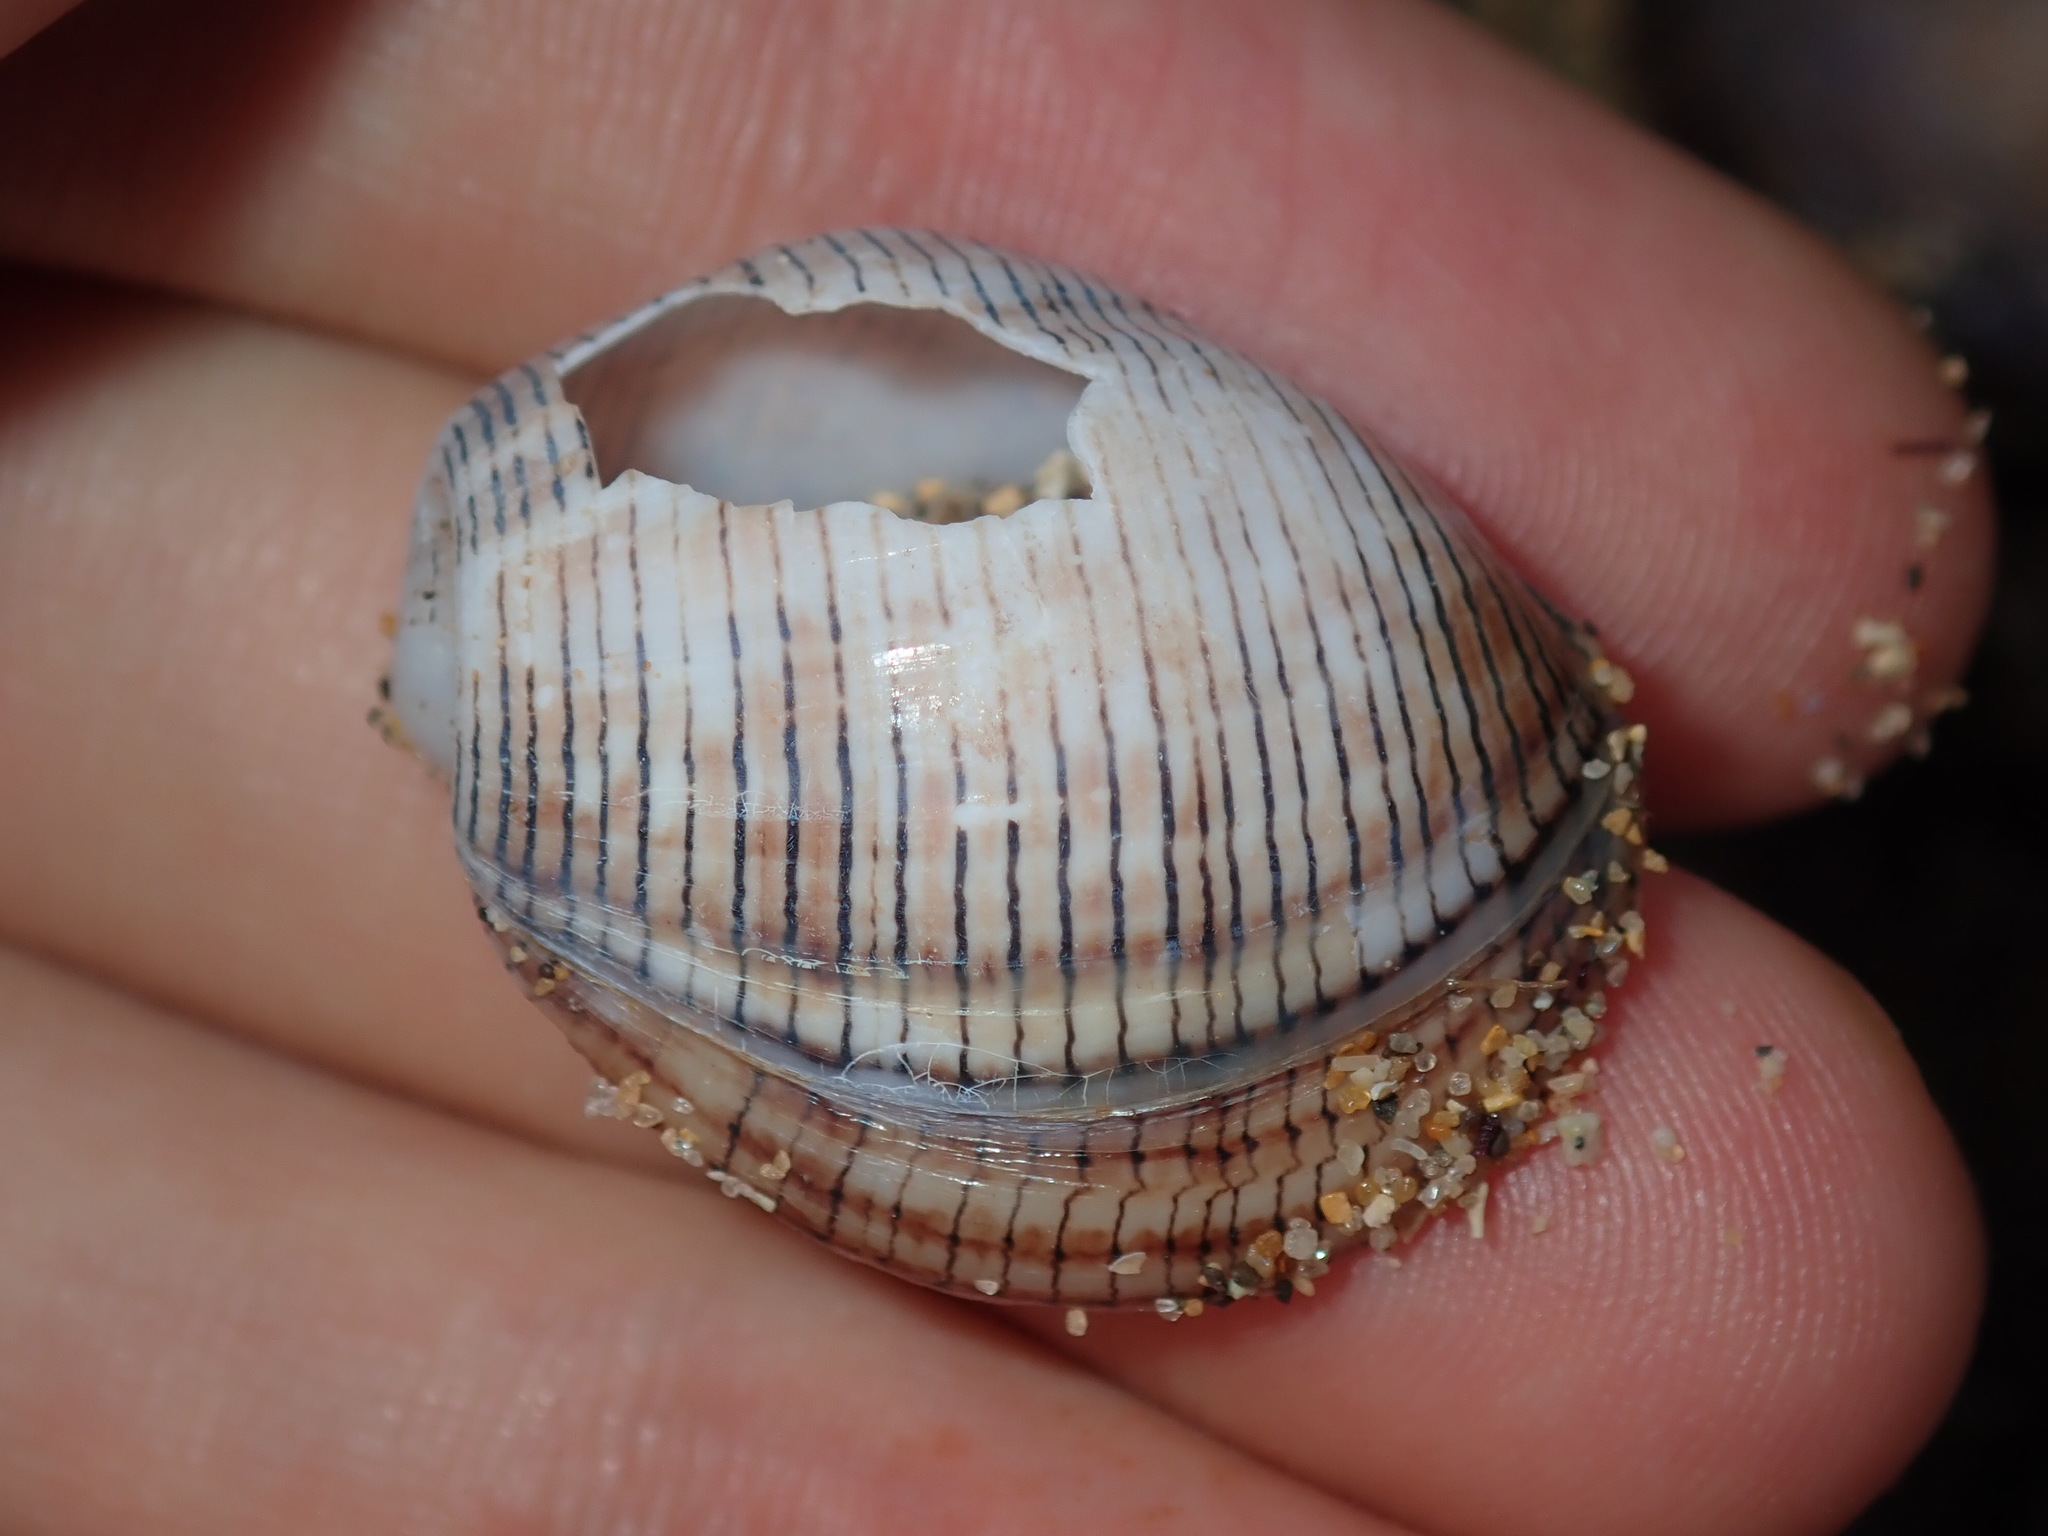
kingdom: Animalia
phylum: Mollusca
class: Gastropoda
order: Cephalaspidea
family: Aplustridae
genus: Hydatina
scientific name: Hydatina physis
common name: Brown-line paperbubble
